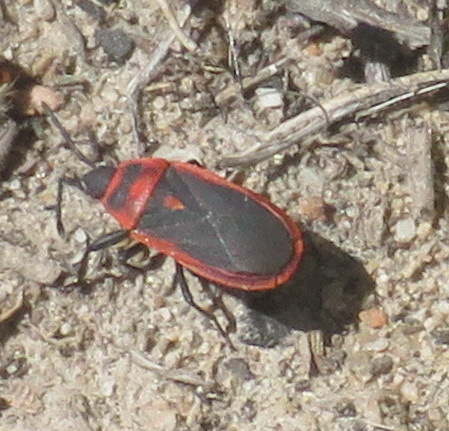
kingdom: Animalia
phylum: Arthropoda
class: Insecta
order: Hemiptera
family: Pyrrhocoridae
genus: Scantius
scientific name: Scantius forsteri
